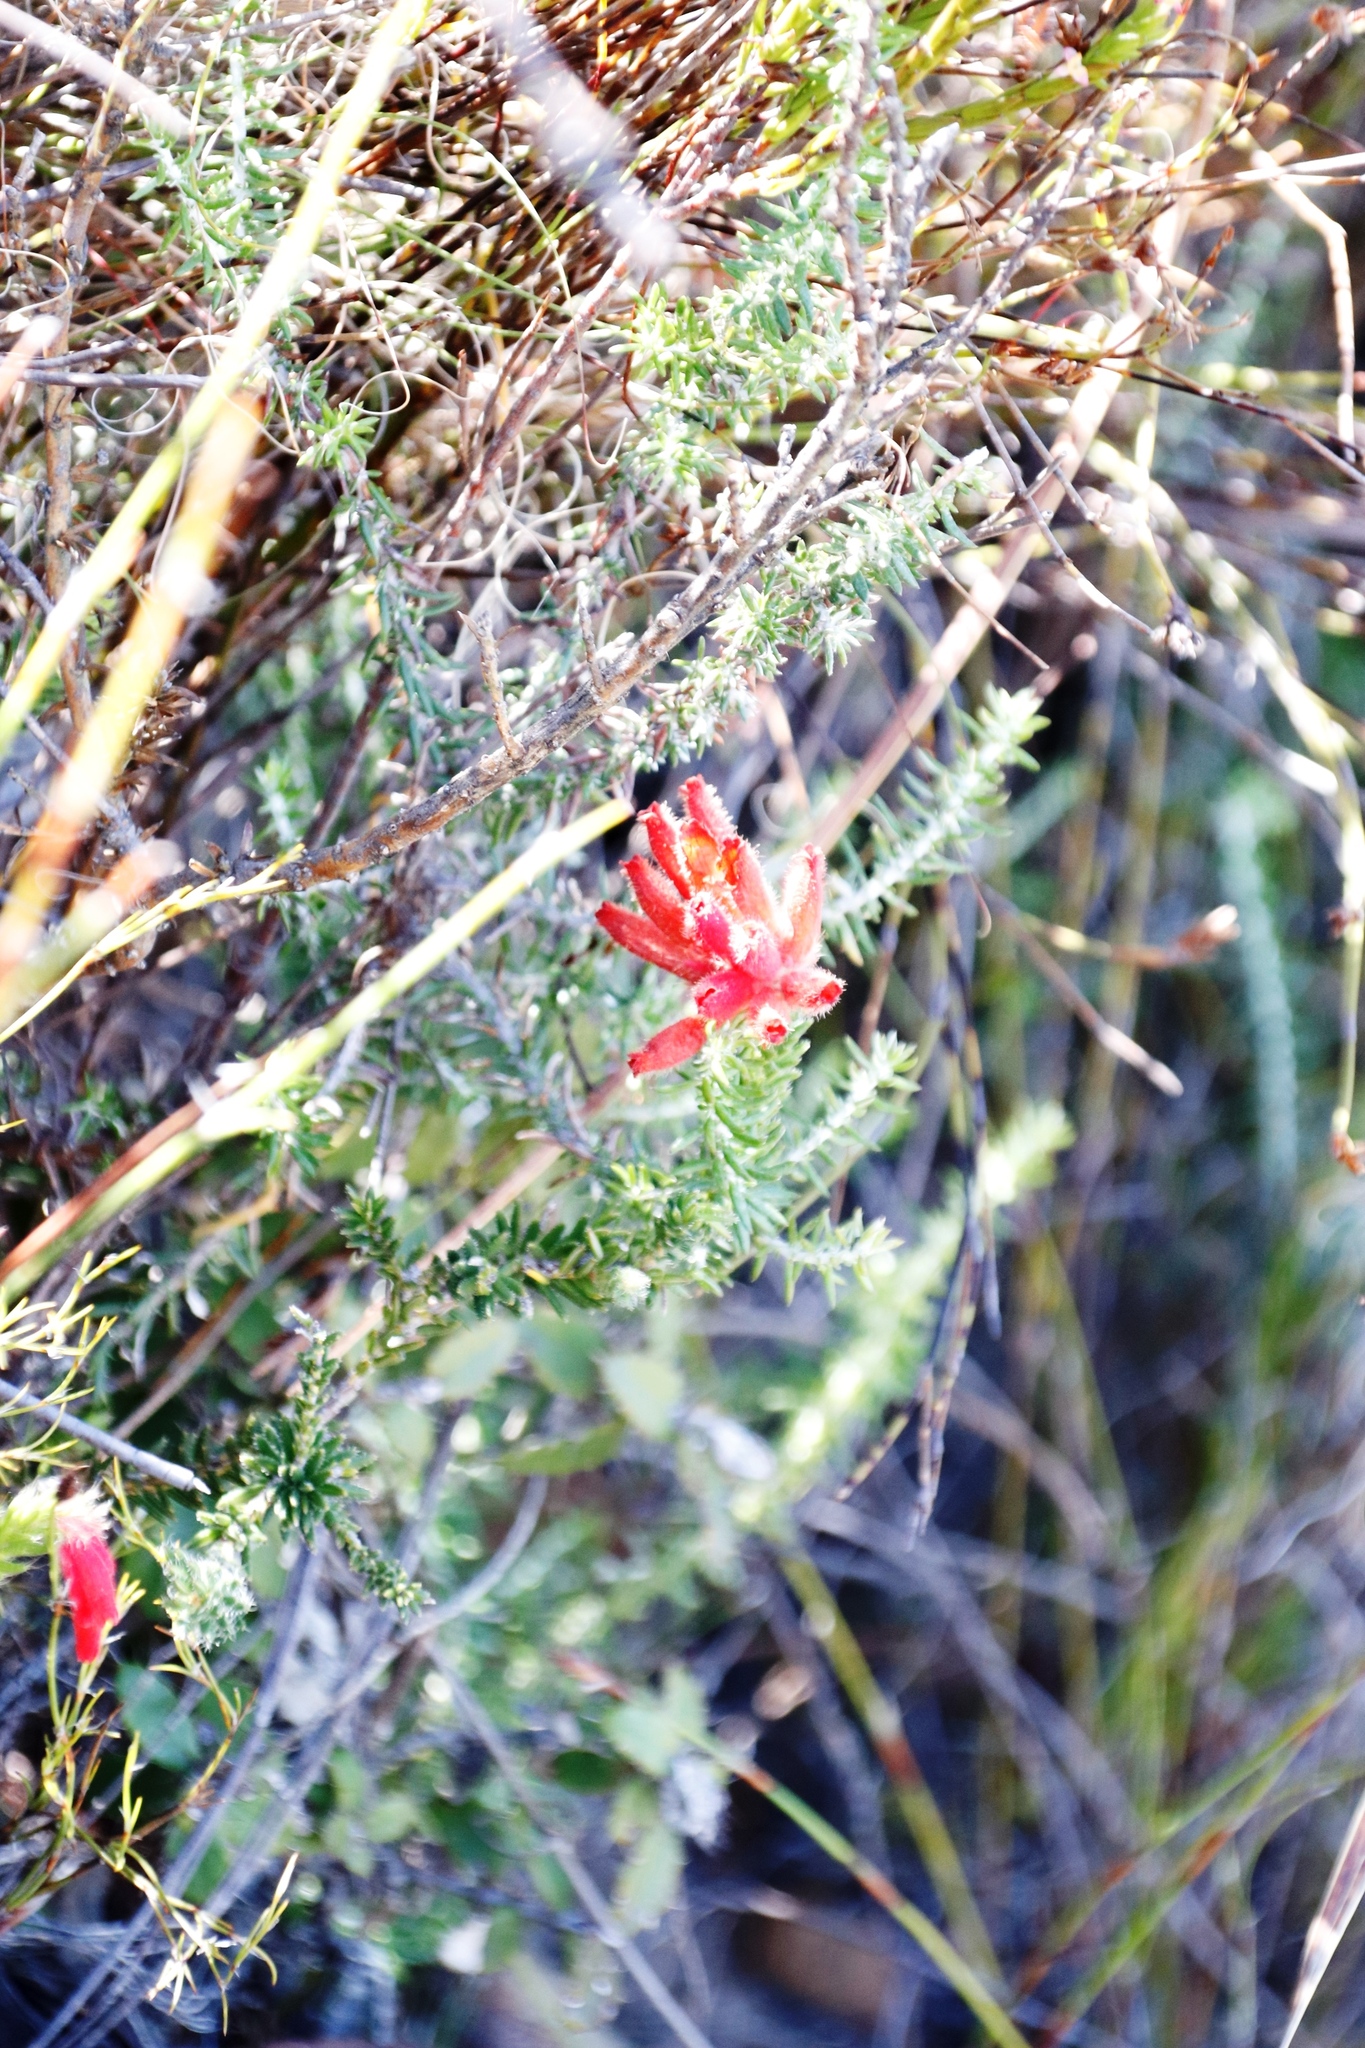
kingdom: Plantae
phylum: Tracheophyta
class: Magnoliopsida
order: Ericales
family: Ericaceae
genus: Erica
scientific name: Erica cerinthoides
